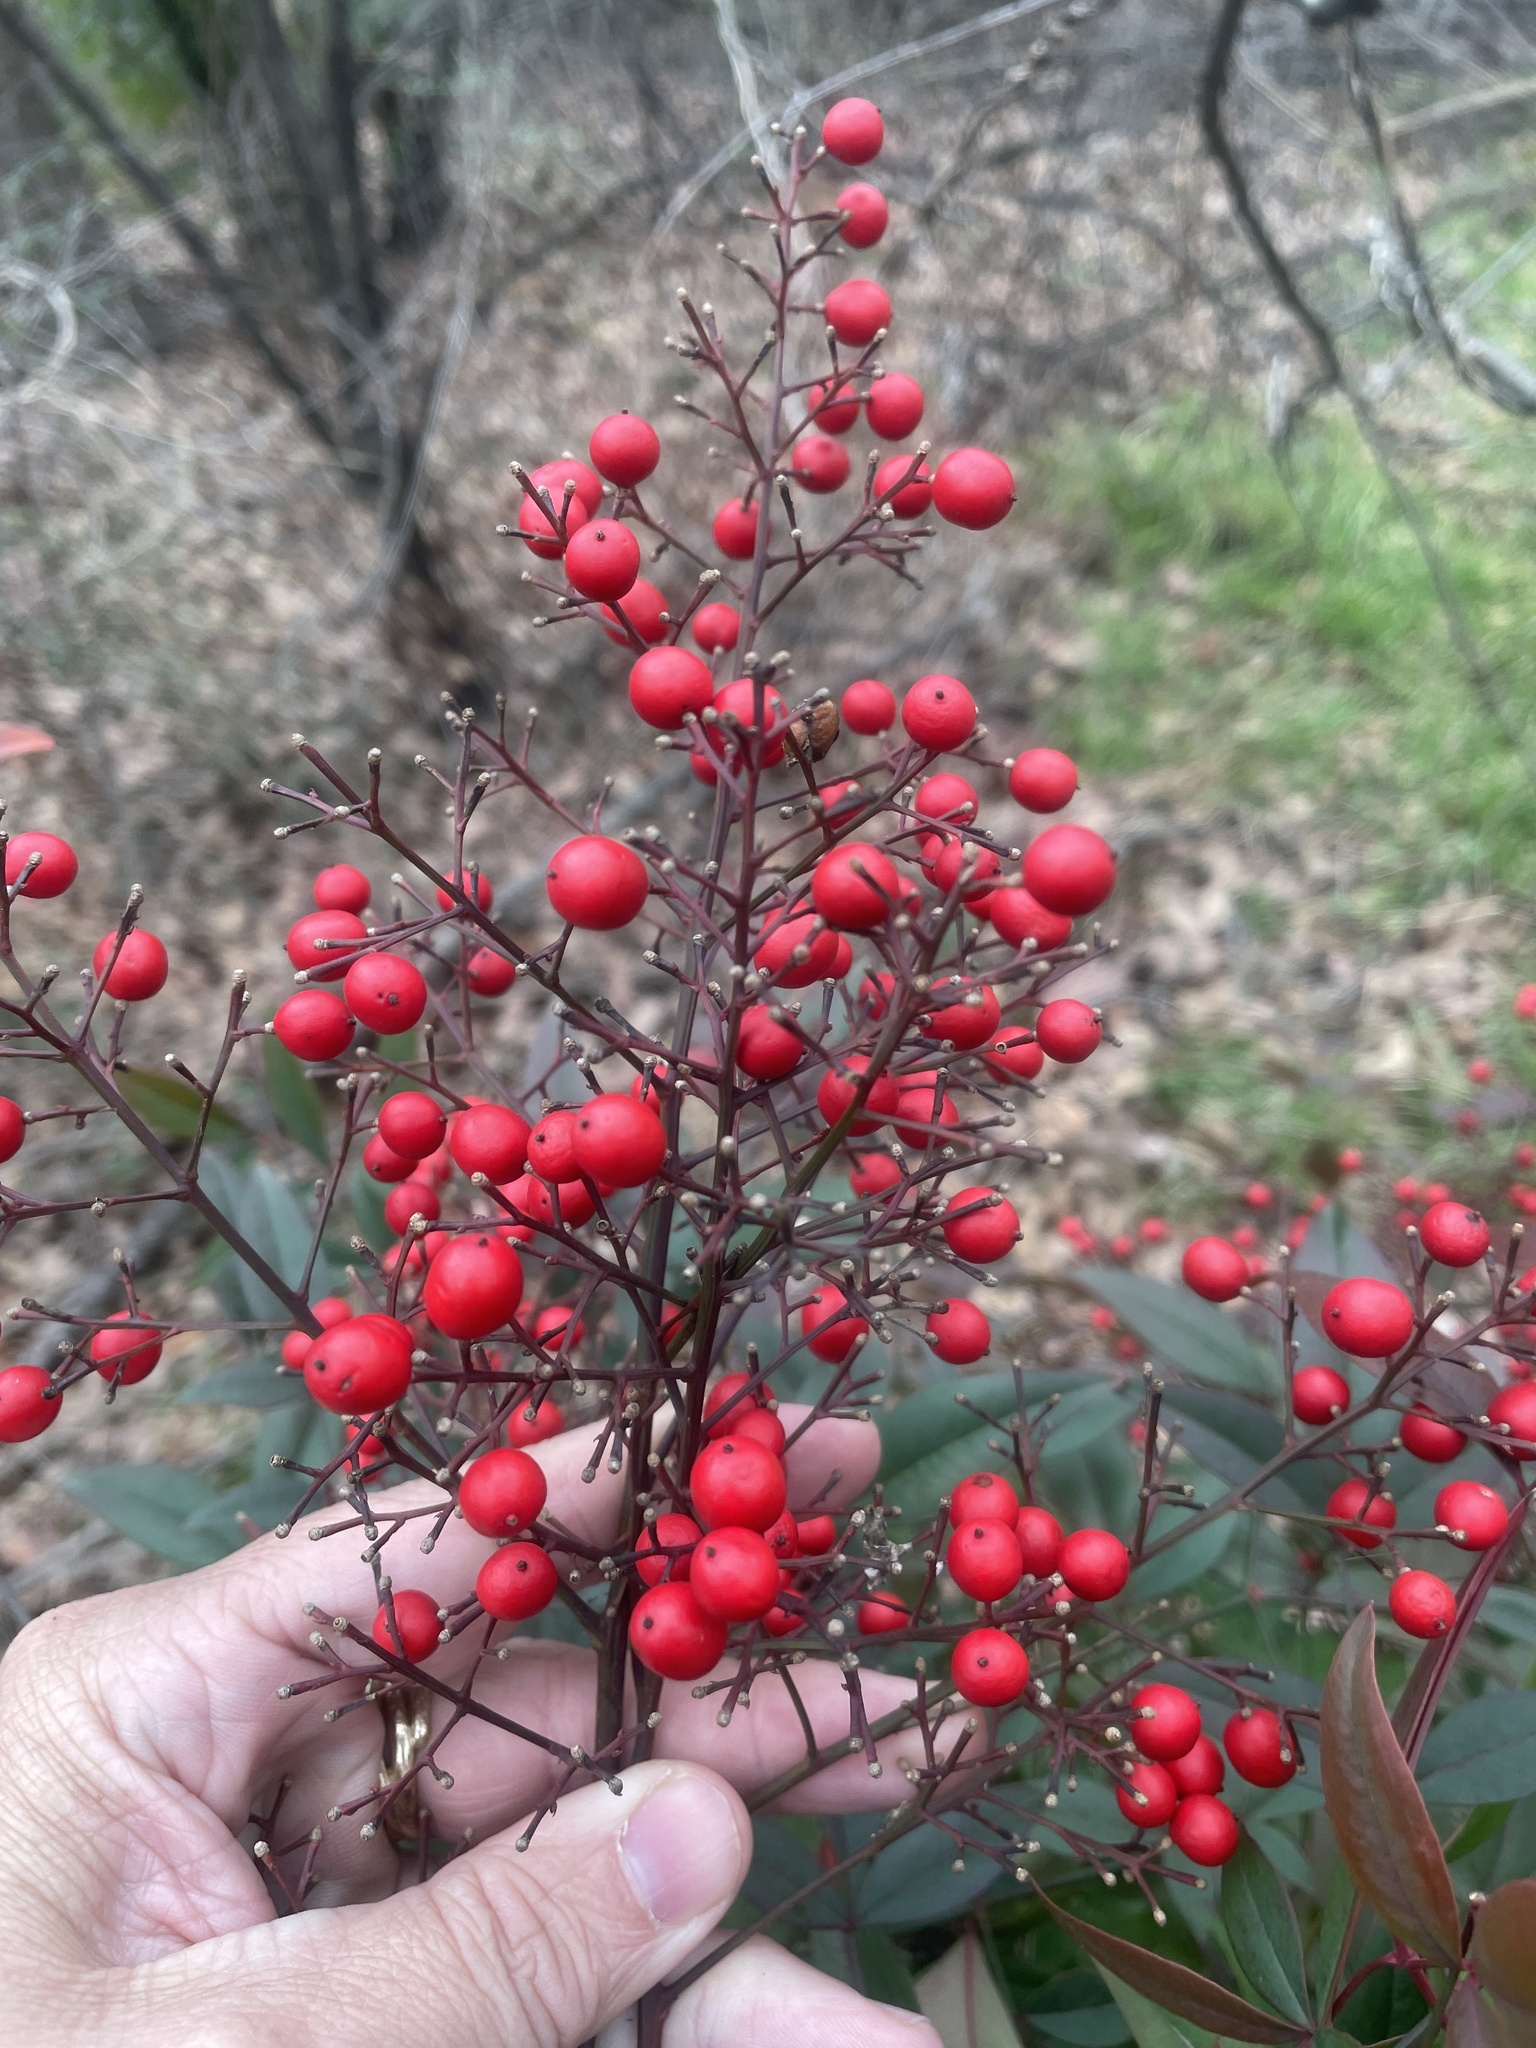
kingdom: Plantae
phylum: Tracheophyta
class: Magnoliopsida
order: Ranunculales
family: Berberidaceae
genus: Nandina
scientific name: Nandina domestica
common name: Sacred bamboo
